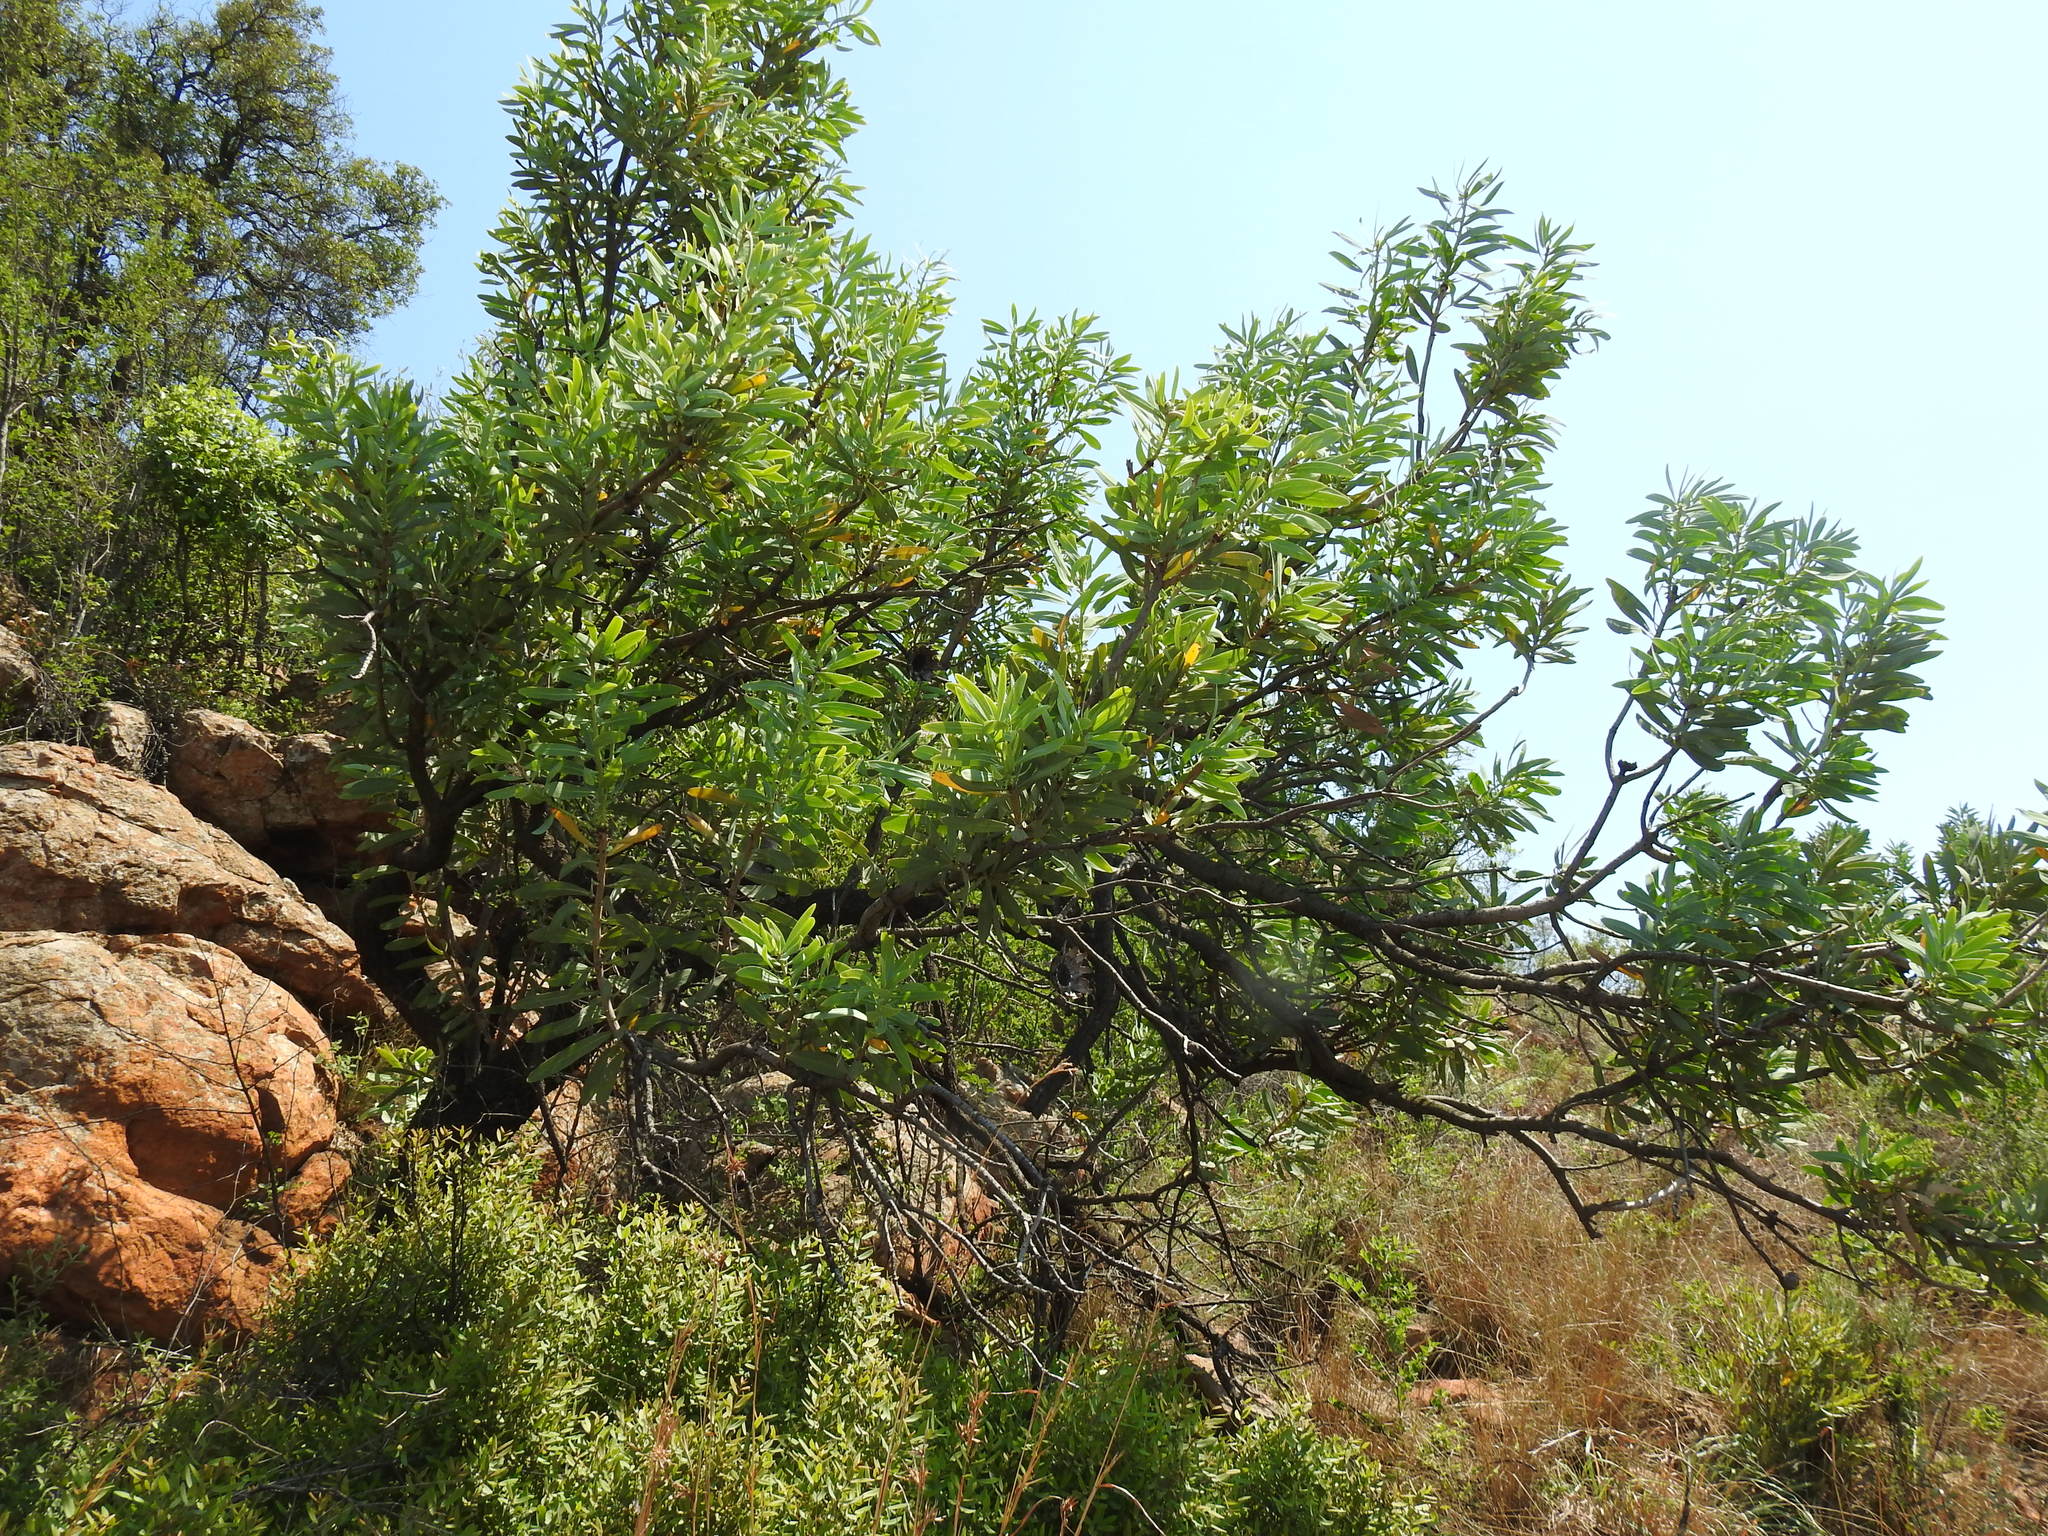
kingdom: Plantae
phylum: Tracheophyta
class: Magnoliopsida
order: Proteales
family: Proteaceae
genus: Protea
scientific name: Protea caffra
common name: Common sugarbush
